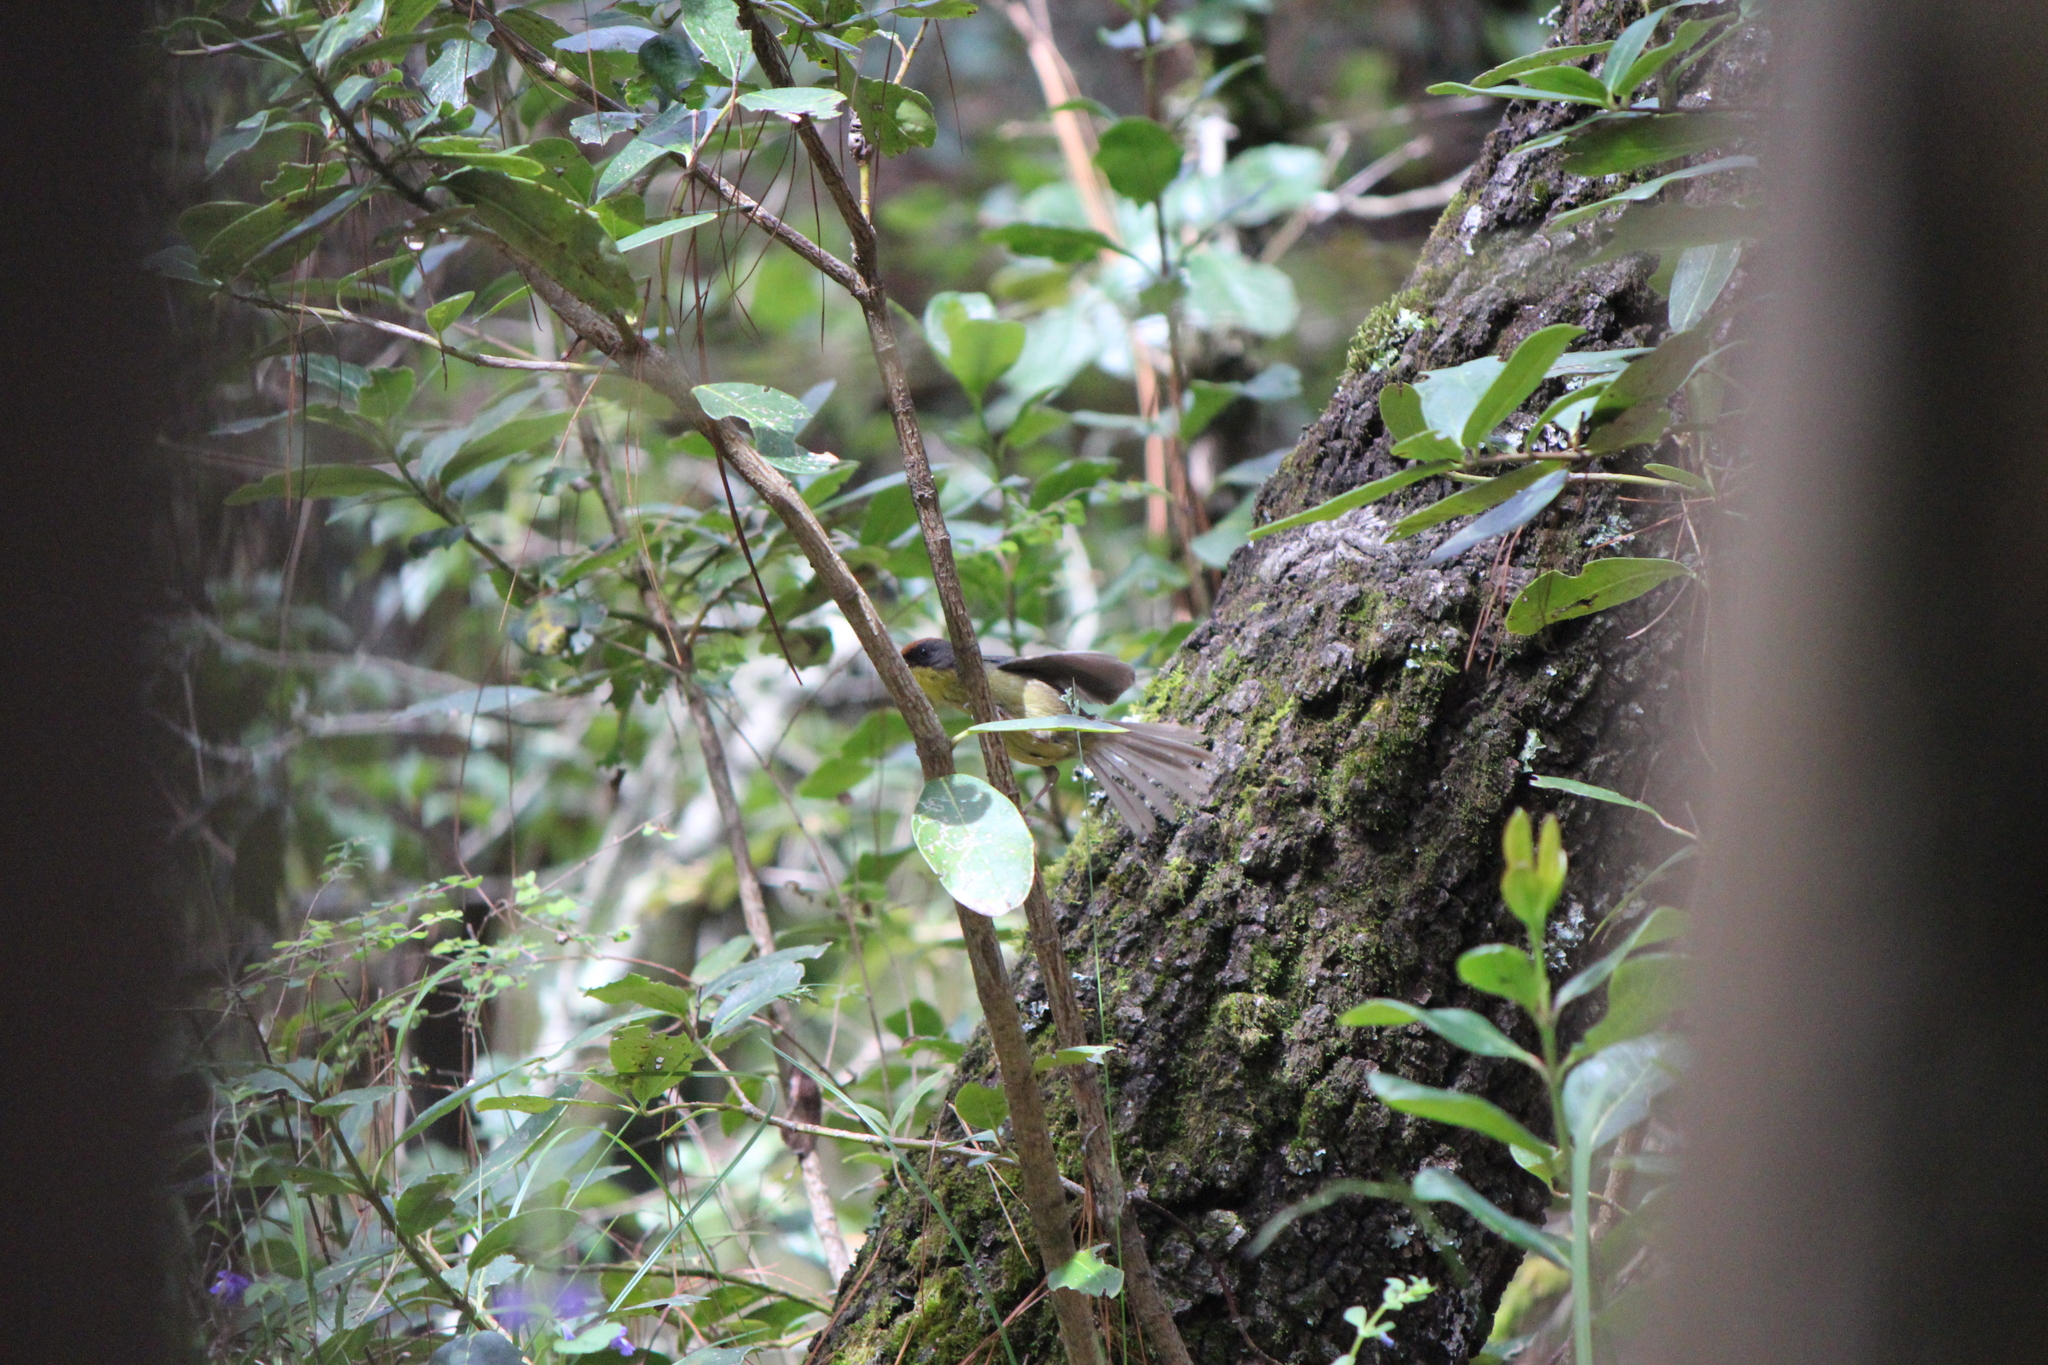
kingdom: Animalia
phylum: Chordata
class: Aves
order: Passeriformes
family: Passerellidae
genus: Atlapetes
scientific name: Atlapetes pileatus
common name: Rufous-capped brush-finch
